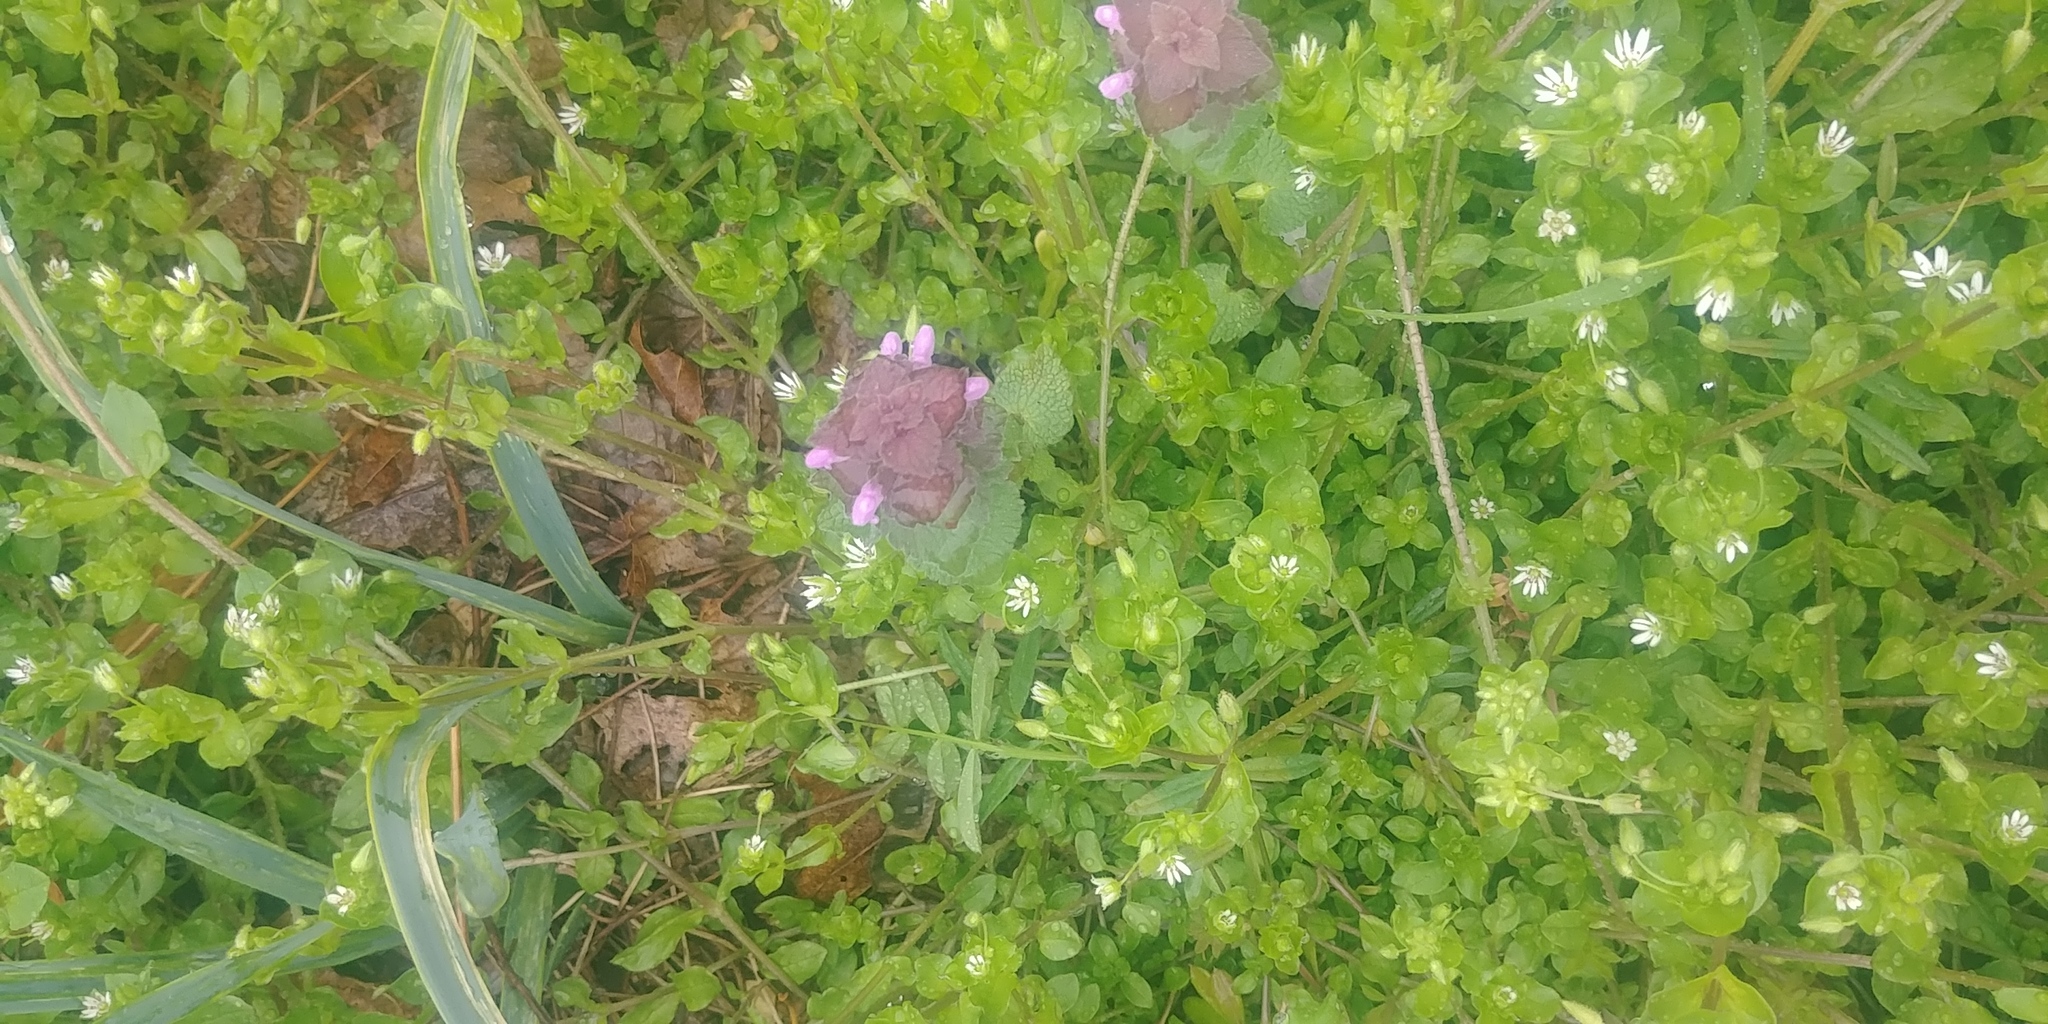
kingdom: Plantae
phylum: Tracheophyta
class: Magnoliopsida
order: Lamiales
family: Lamiaceae
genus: Lamium
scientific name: Lamium purpureum
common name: Red dead-nettle
